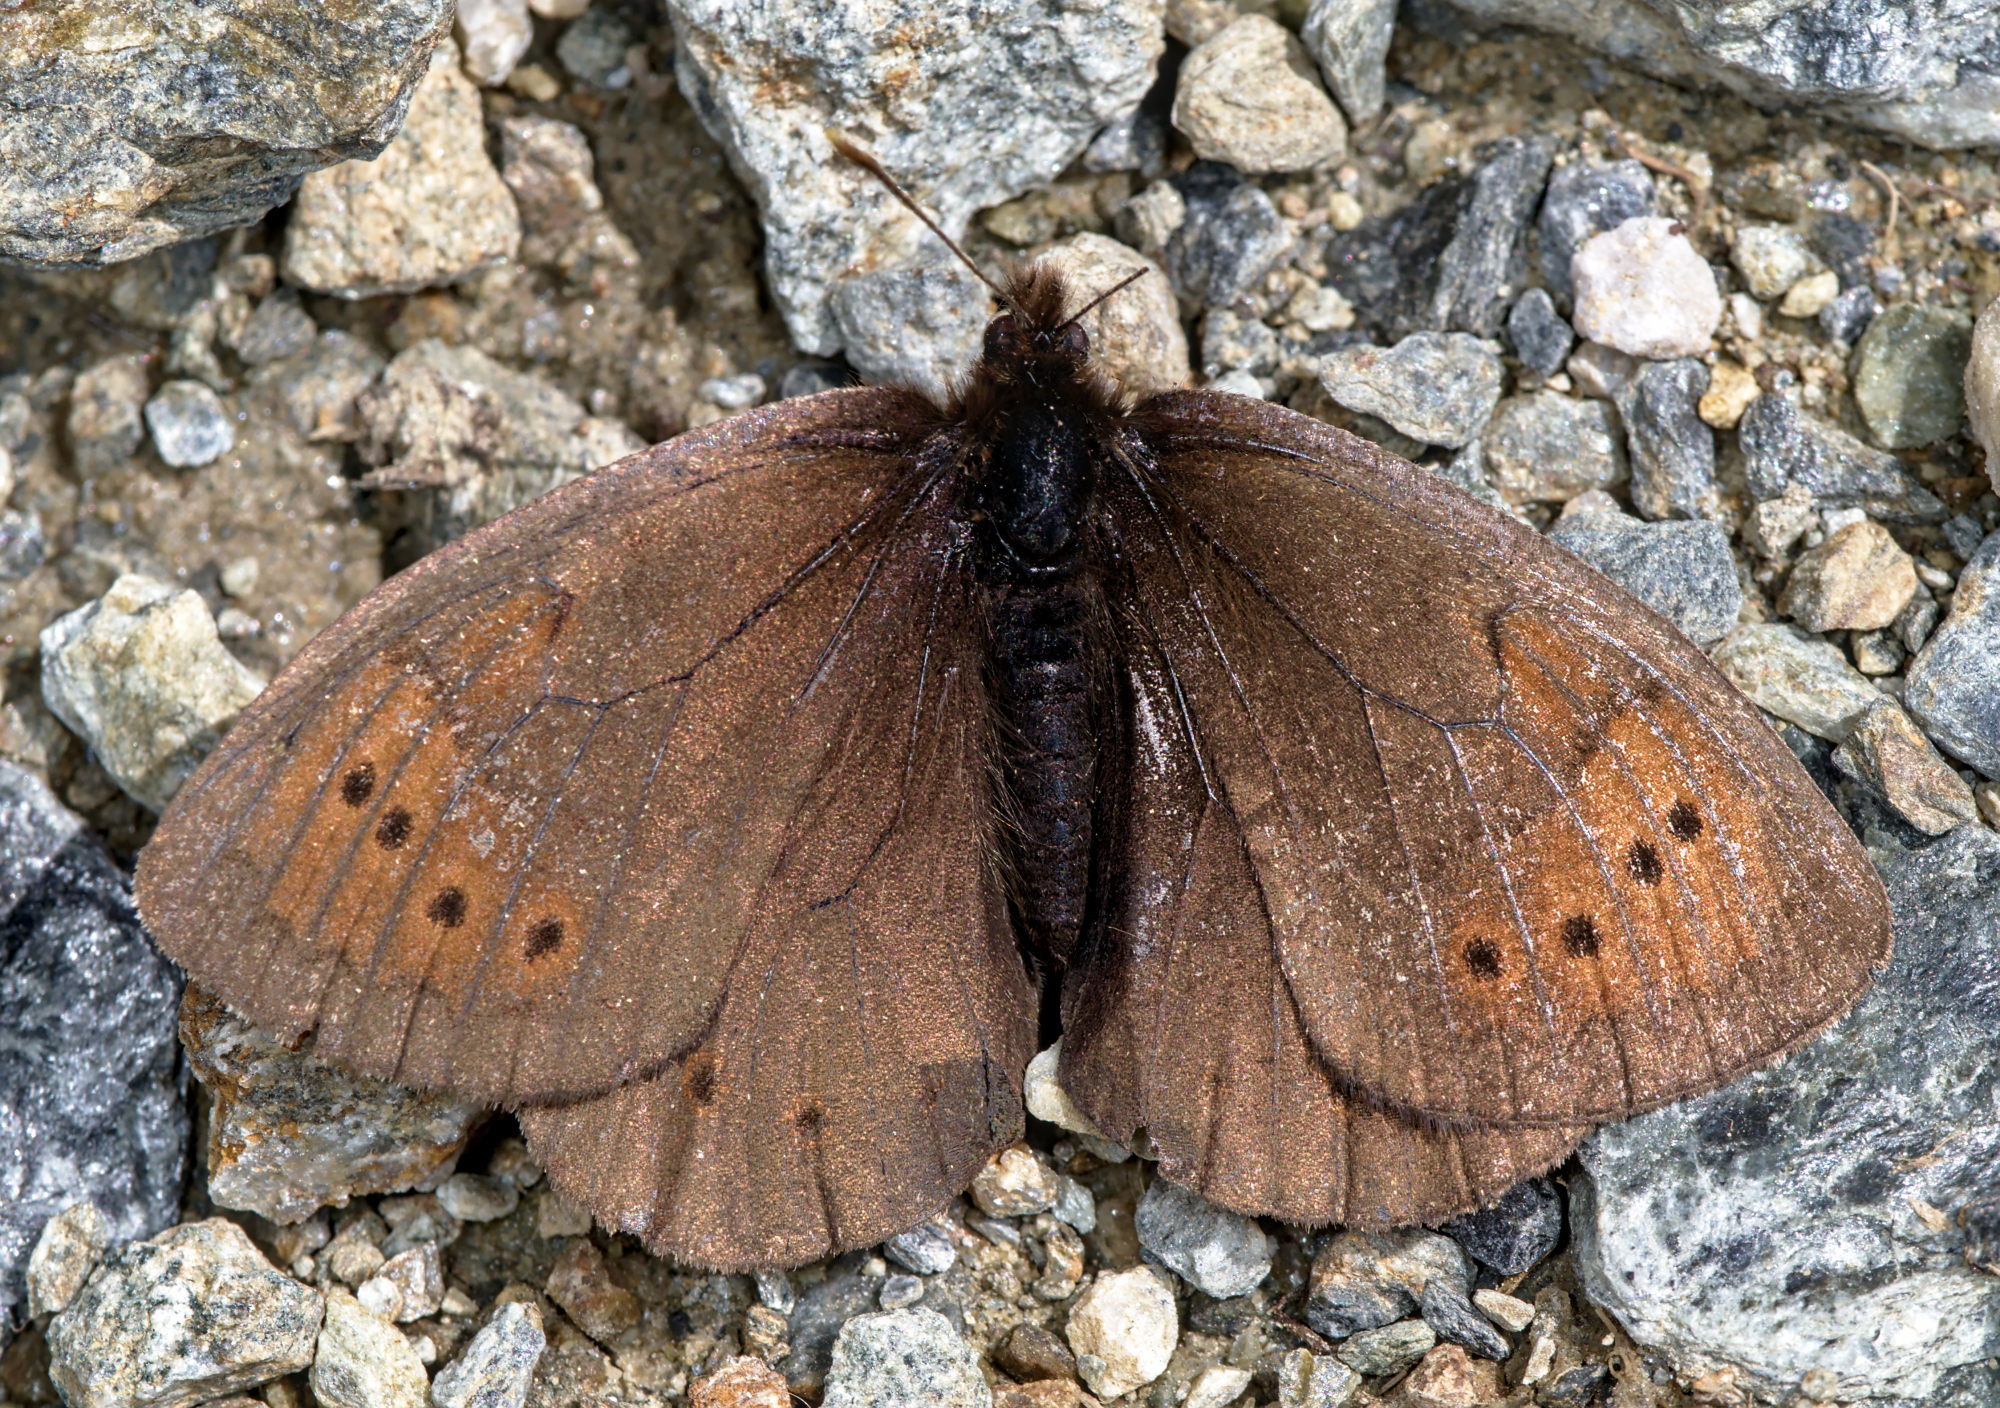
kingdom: Animalia
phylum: Arthropoda
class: Insecta
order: Lepidoptera
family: Nymphalidae
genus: Erebia
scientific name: Erebia pandrose
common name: Dewy ringlet
